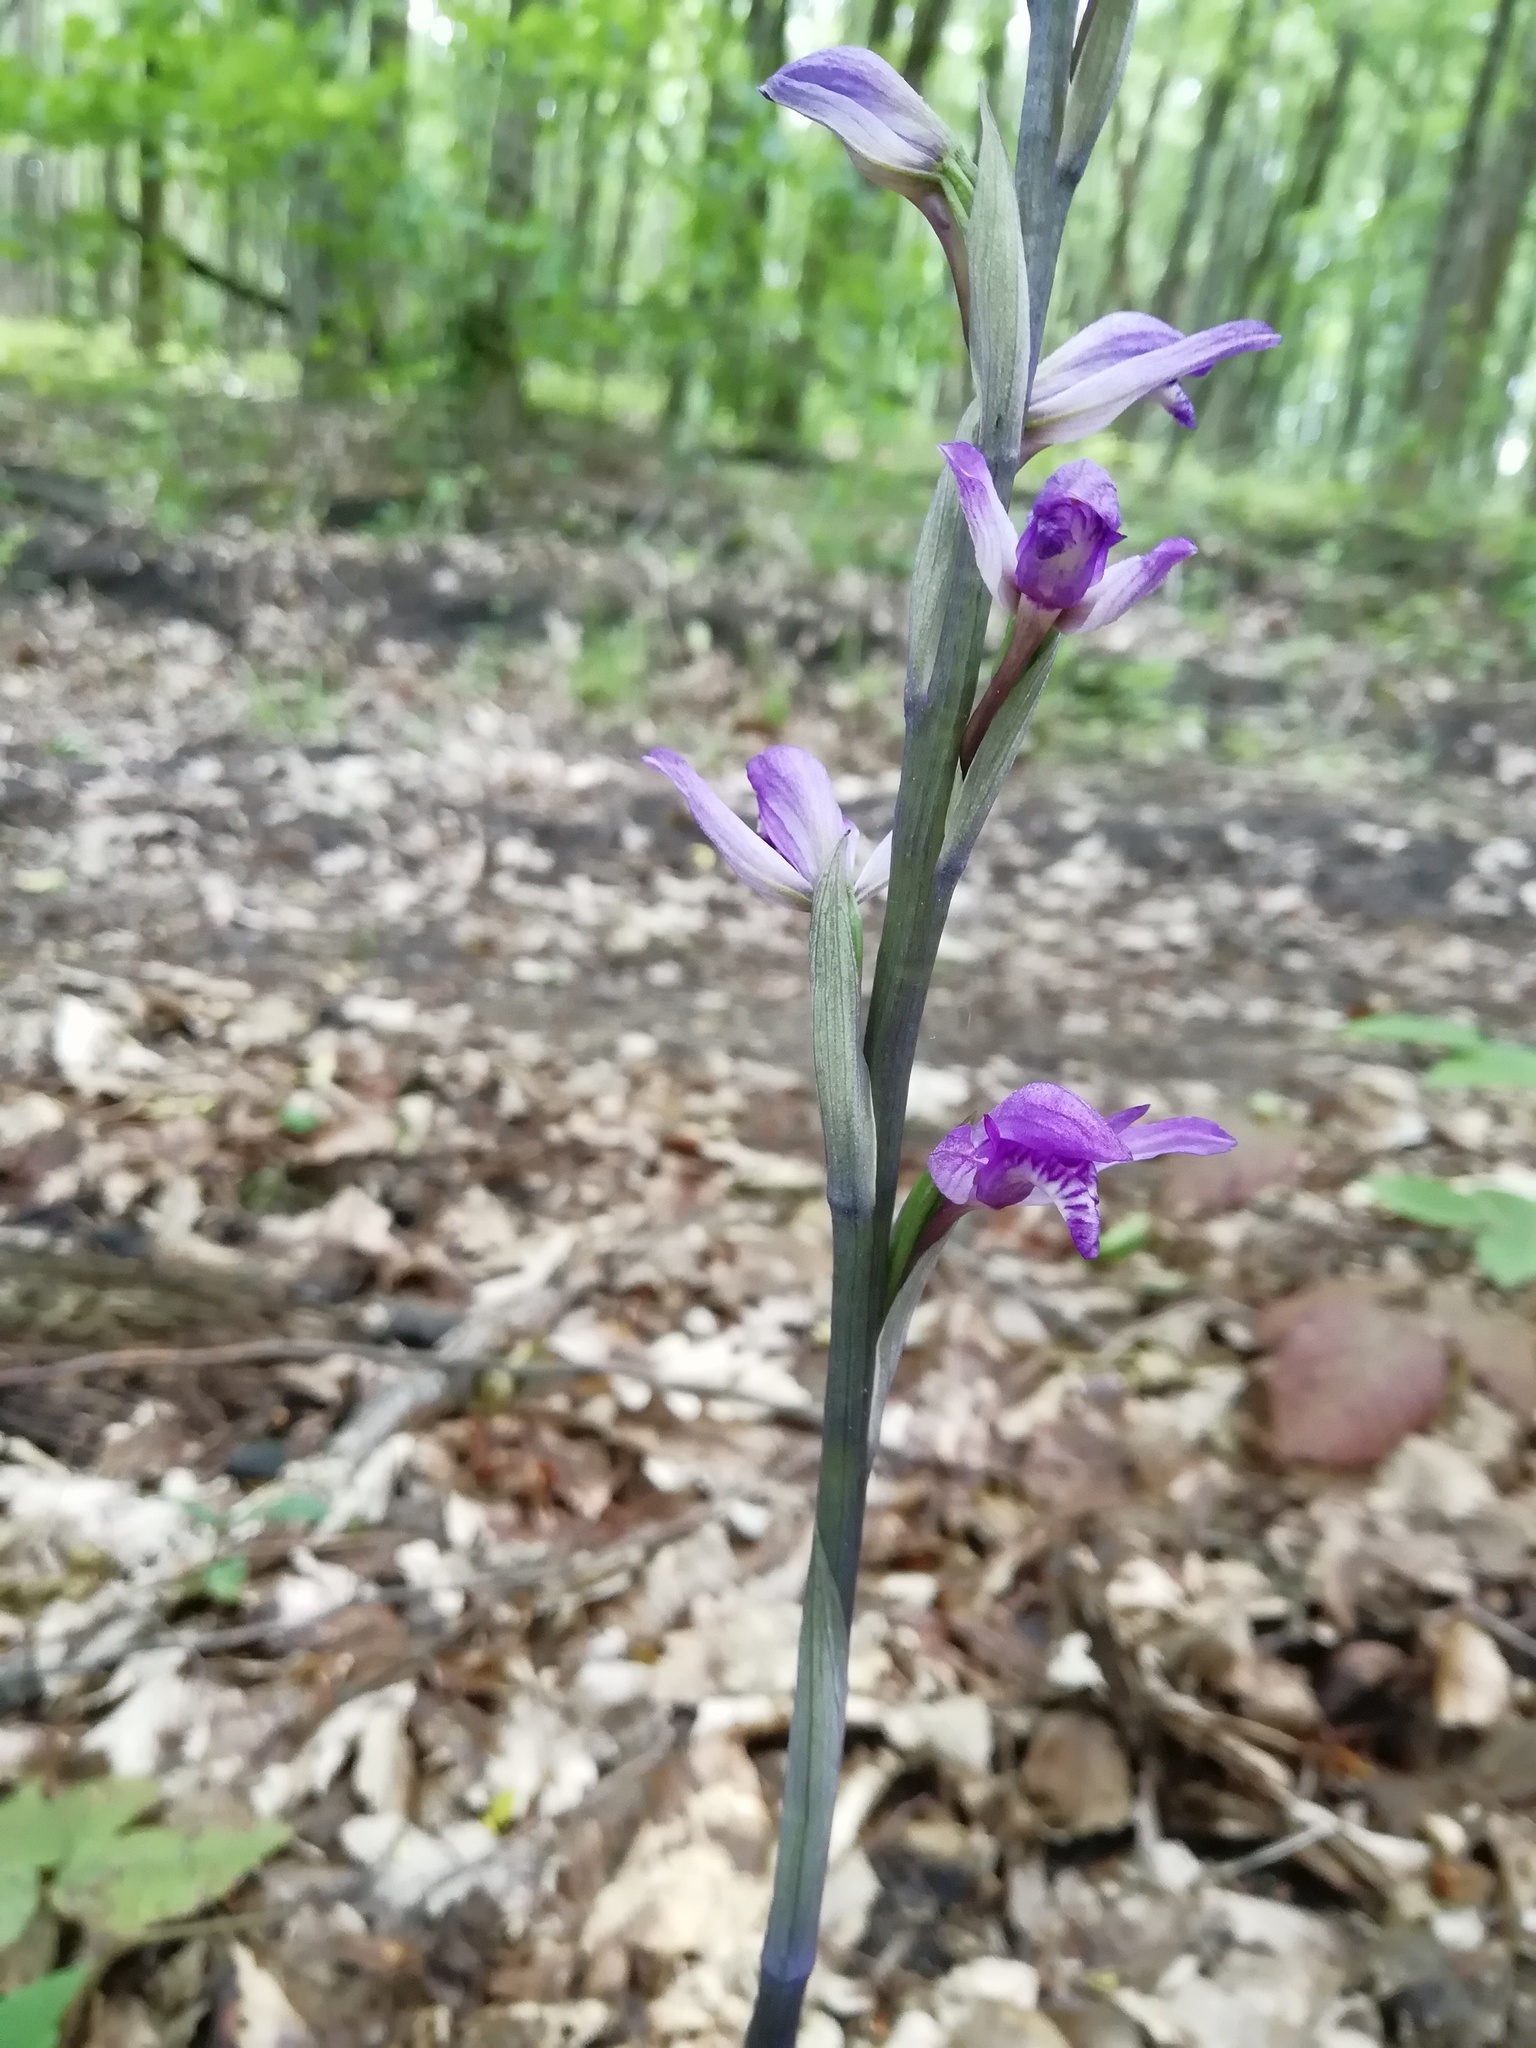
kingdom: Plantae
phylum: Tracheophyta
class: Liliopsida
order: Asparagales
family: Orchidaceae
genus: Limodorum
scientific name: Limodorum abortivum
